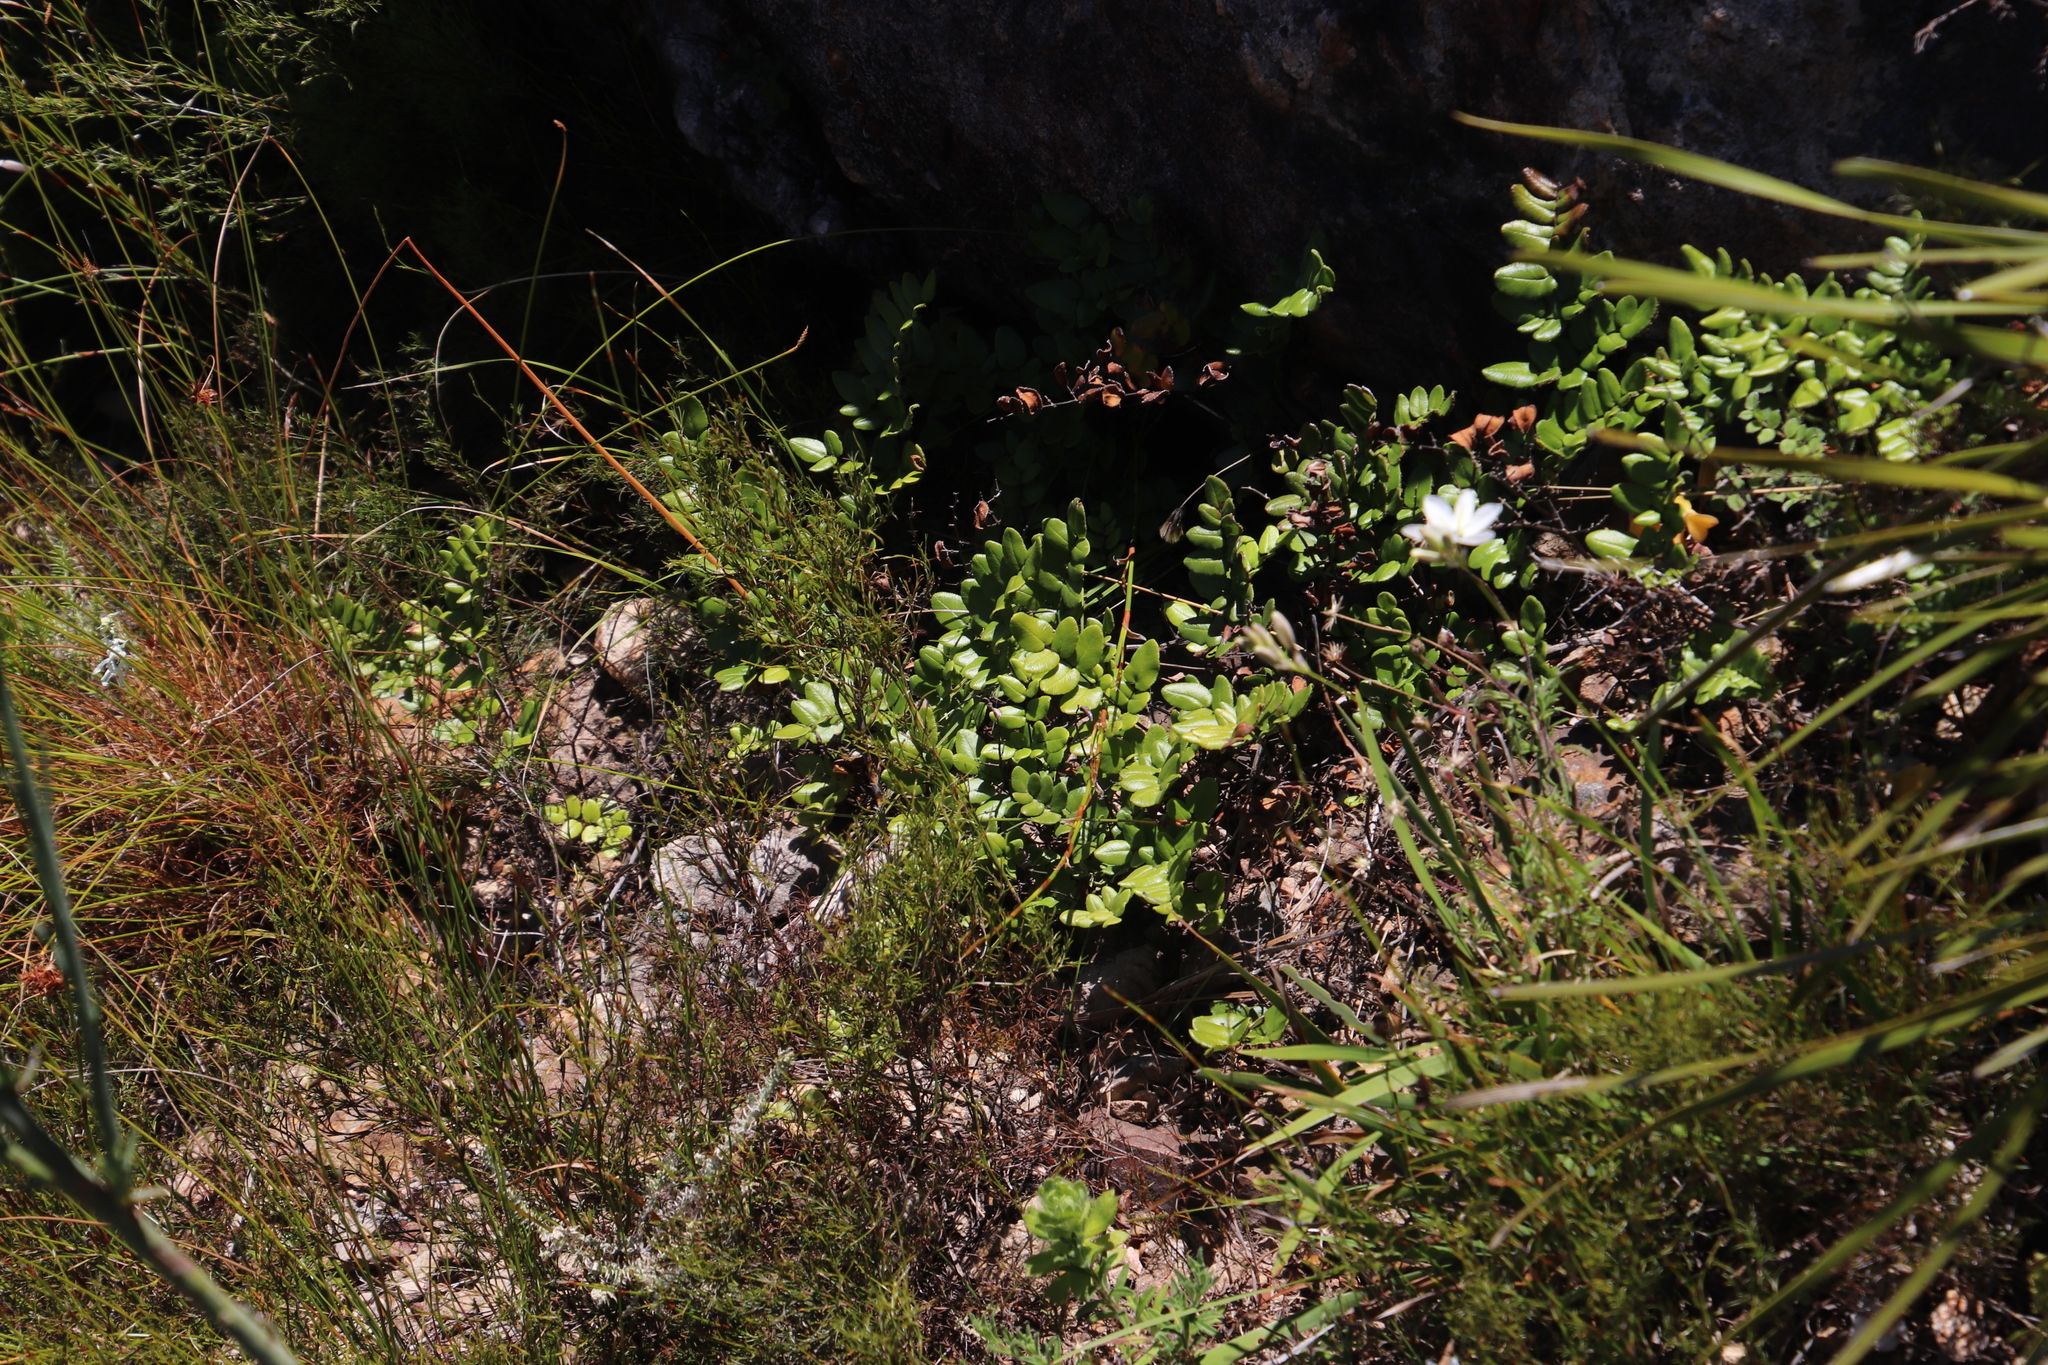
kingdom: Plantae
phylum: Tracheophyta
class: Polypodiopsida
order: Polypodiales
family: Pteridaceae
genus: Pellaea
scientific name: Pellaea pteroides
